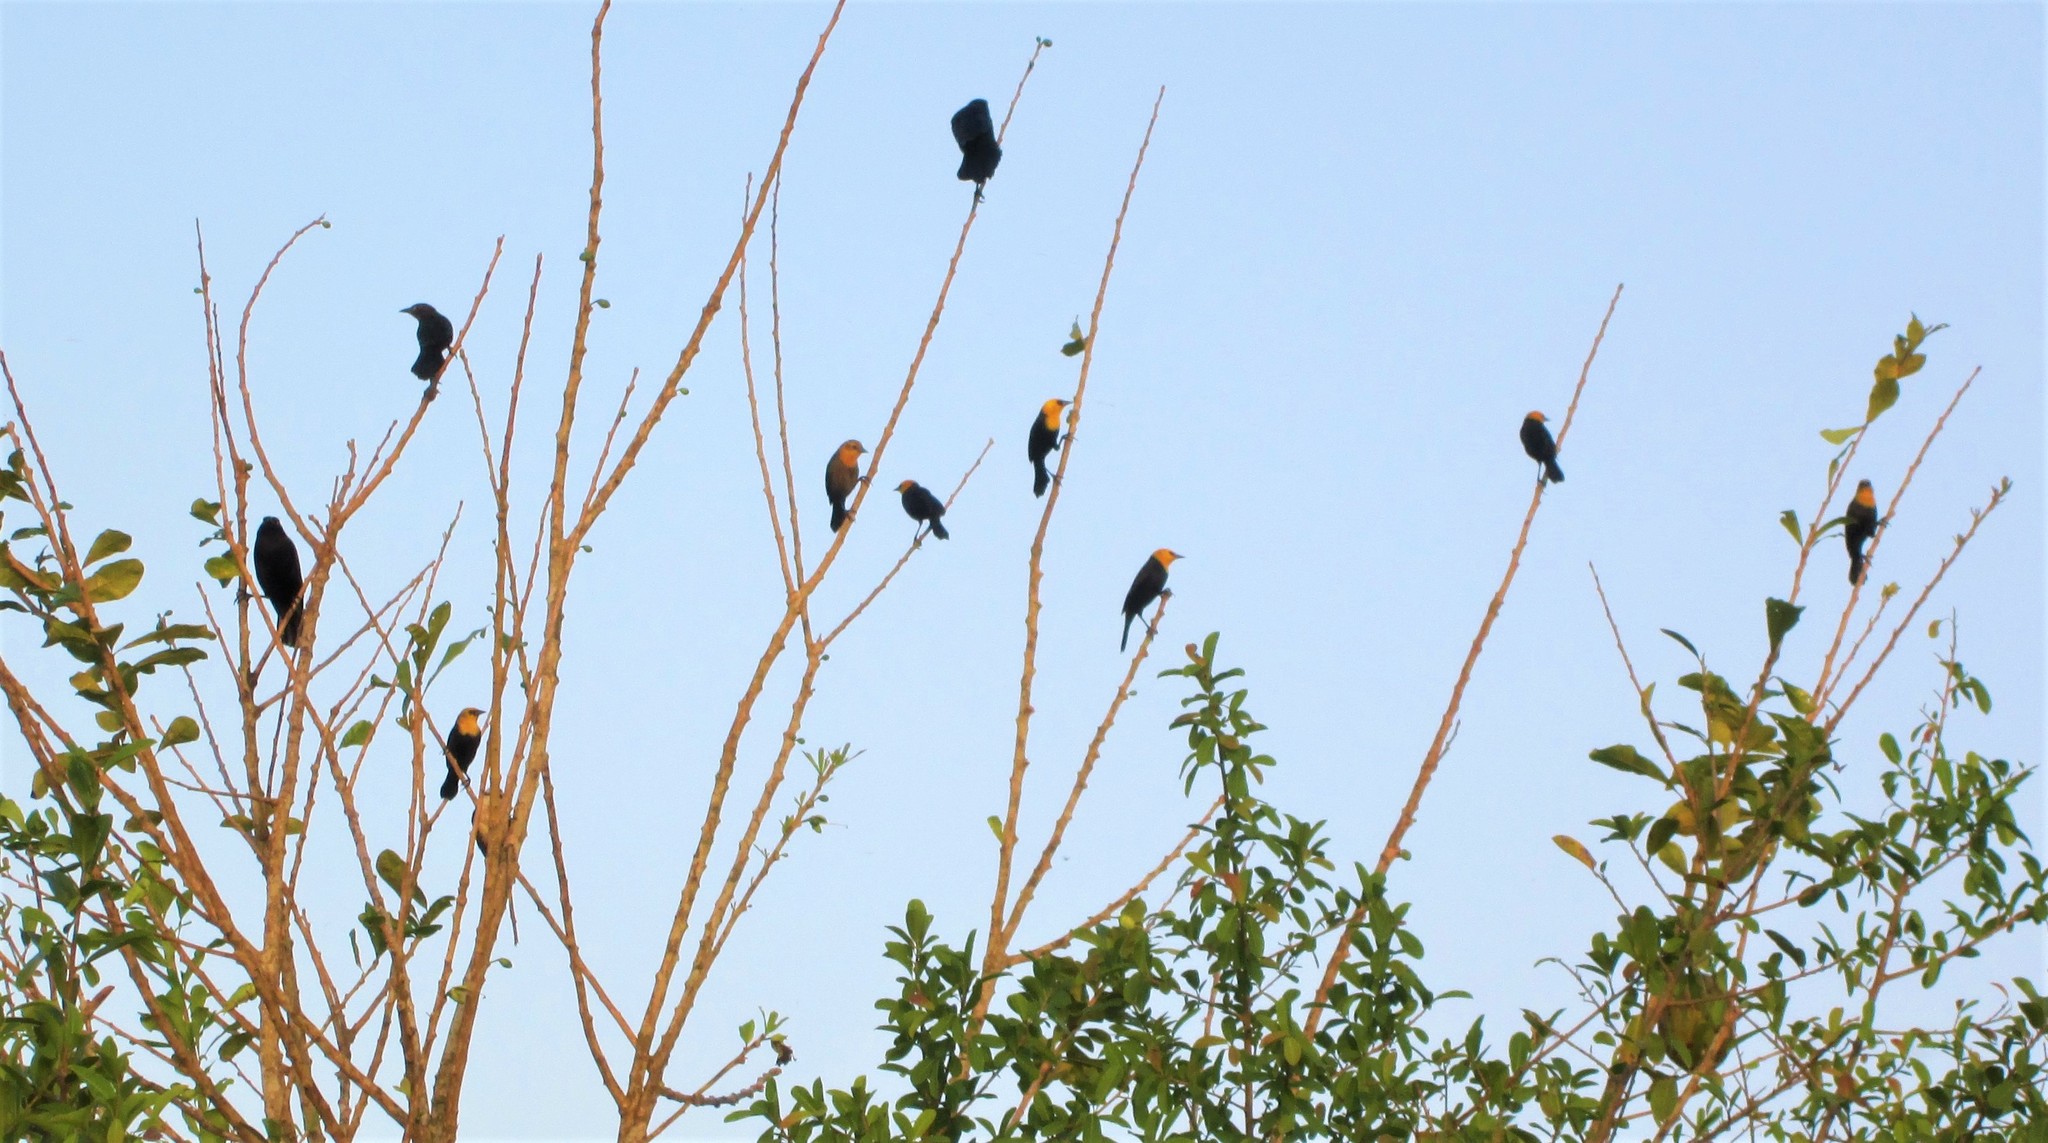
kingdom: Animalia
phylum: Chordata
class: Aves
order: Passeriformes
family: Icteridae
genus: Chrysomus
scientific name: Chrysomus icterocephalus
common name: Yellow-hooded blackbird
